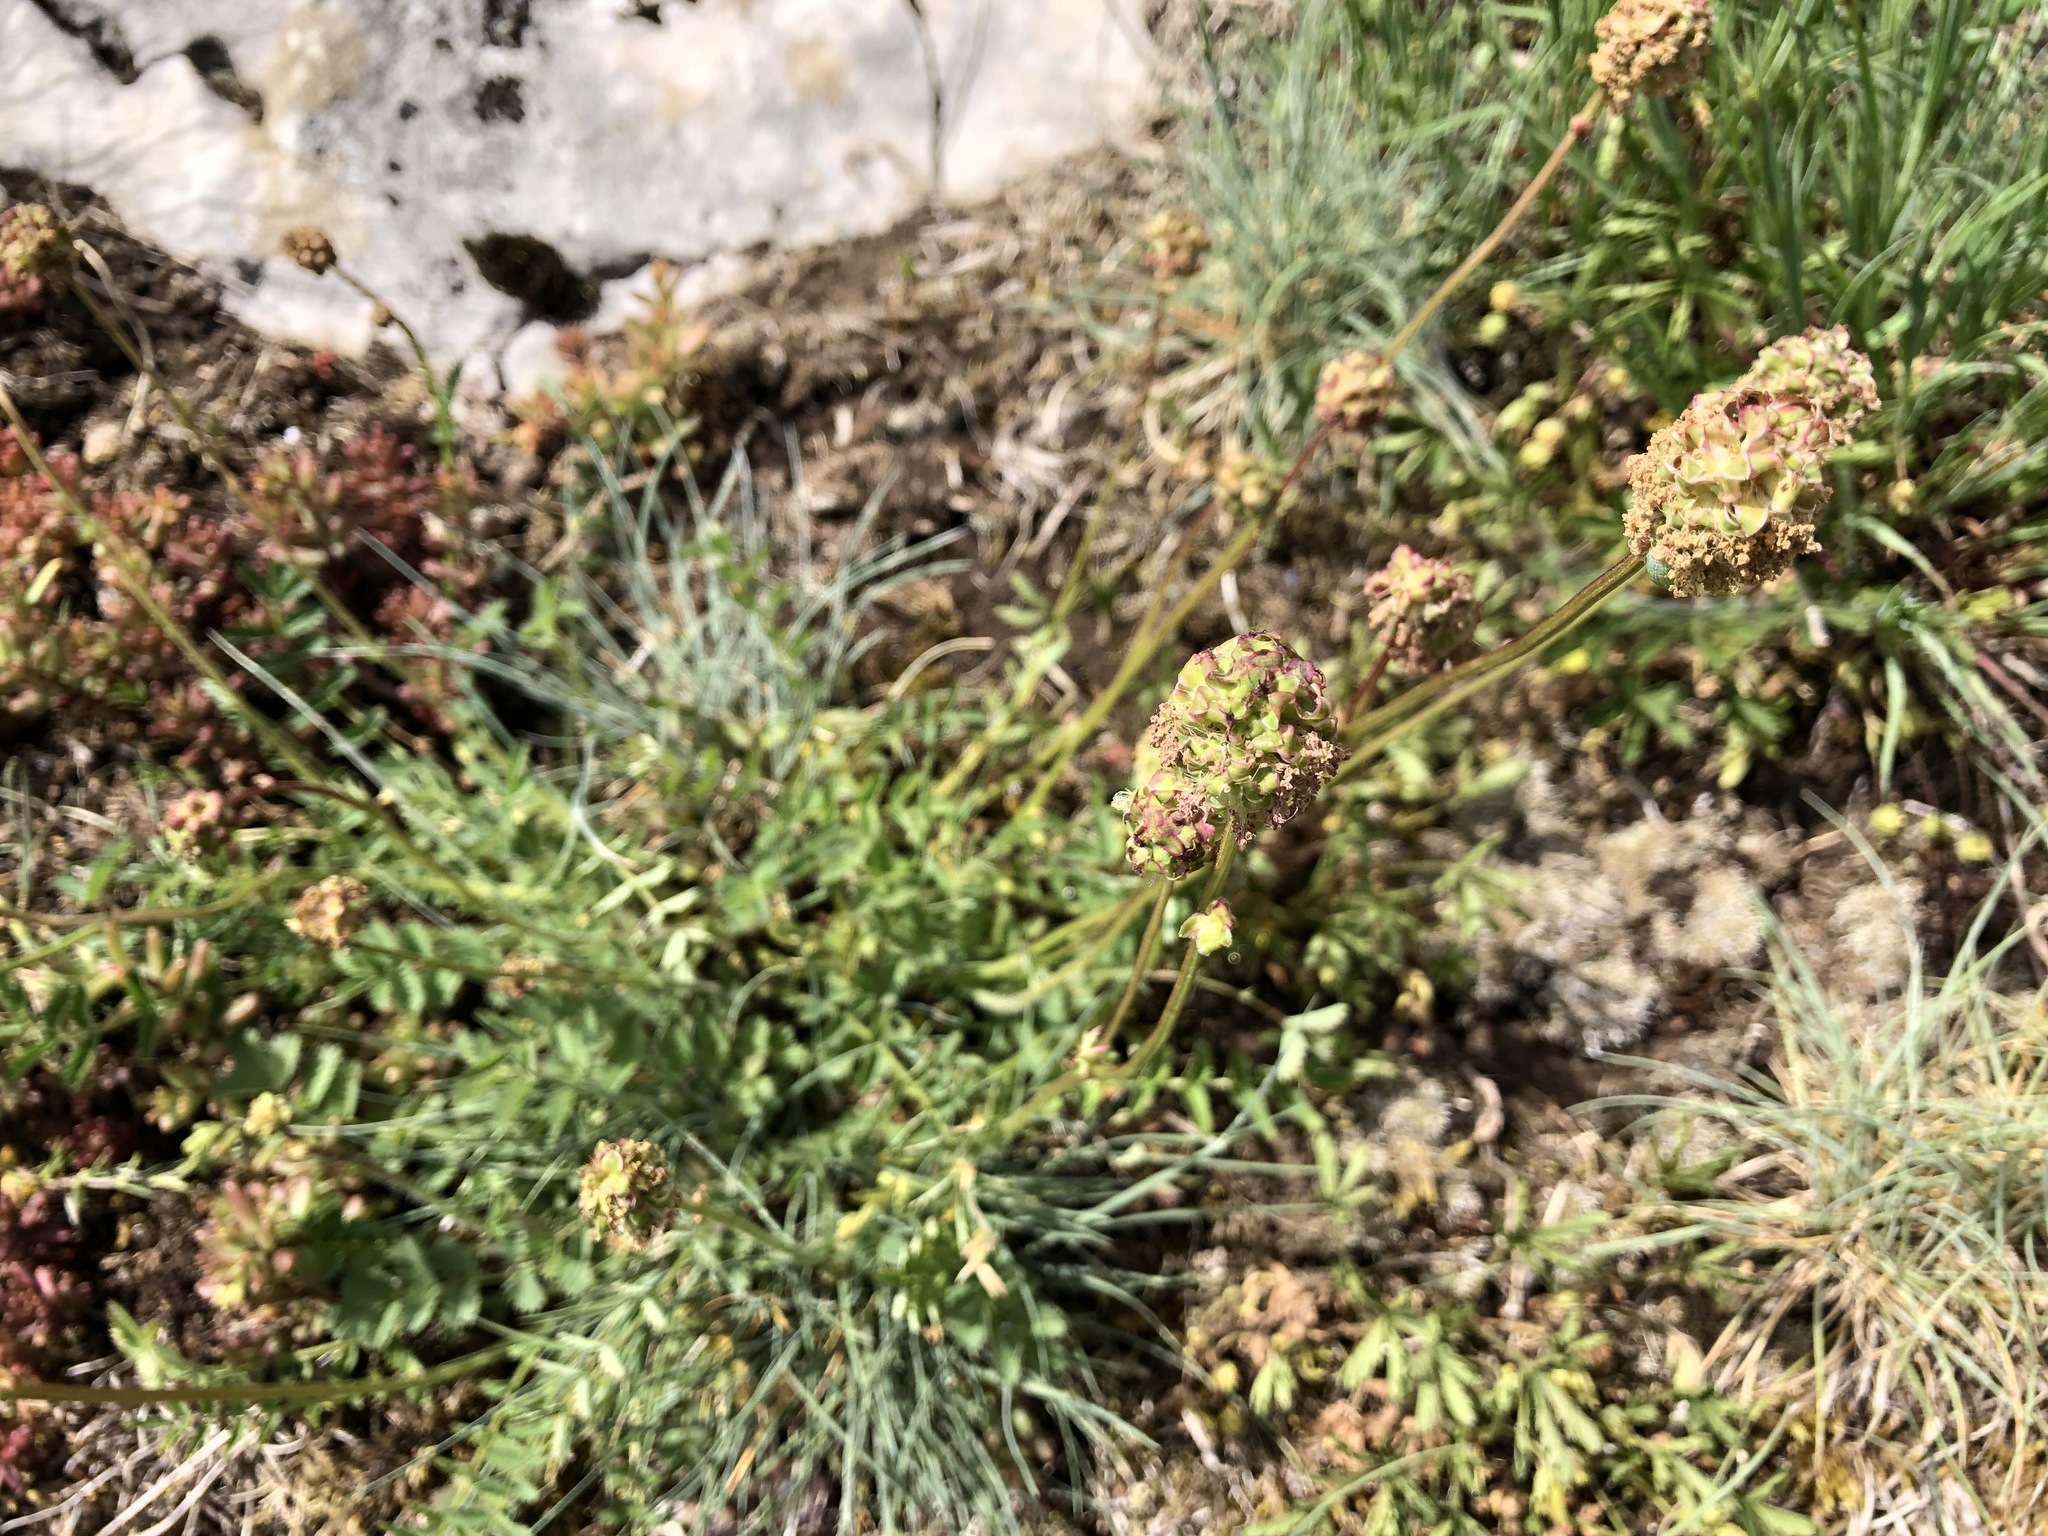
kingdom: Plantae
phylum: Tracheophyta
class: Magnoliopsida
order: Rosales
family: Rosaceae
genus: Poterium
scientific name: Poterium sanguisorba
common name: Salad burnet
